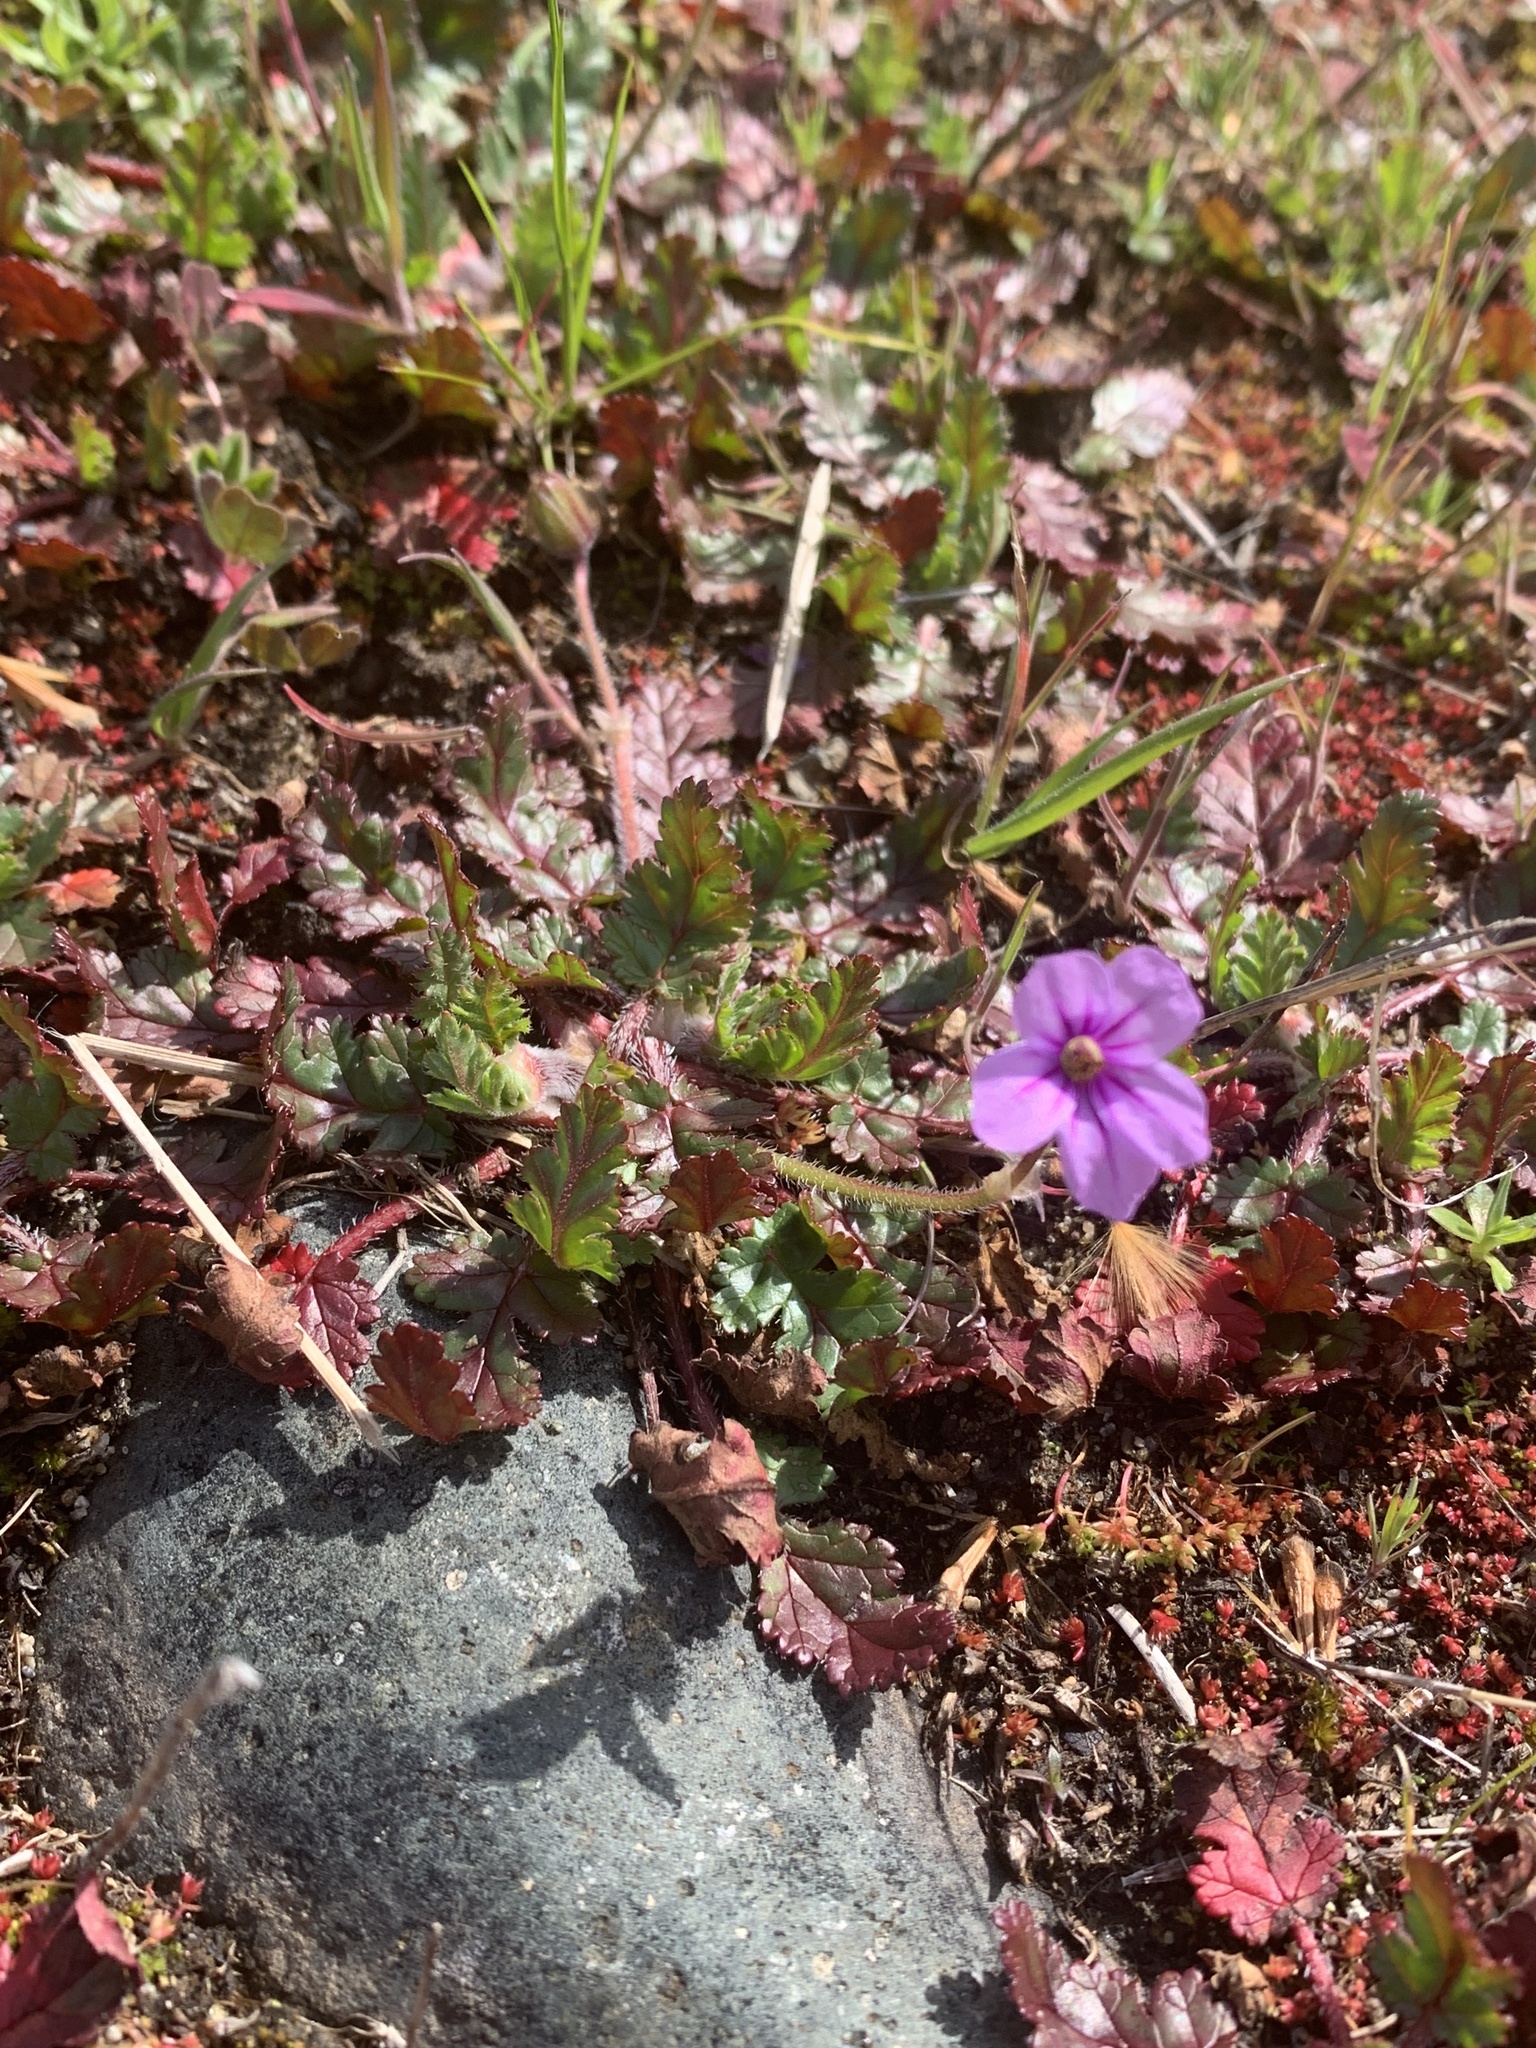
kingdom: Plantae
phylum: Tracheophyta
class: Magnoliopsida
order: Geraniales
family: Geraniaceae
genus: Erodium
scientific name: Erodium botrys
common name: Mediterranean stork's-bill
